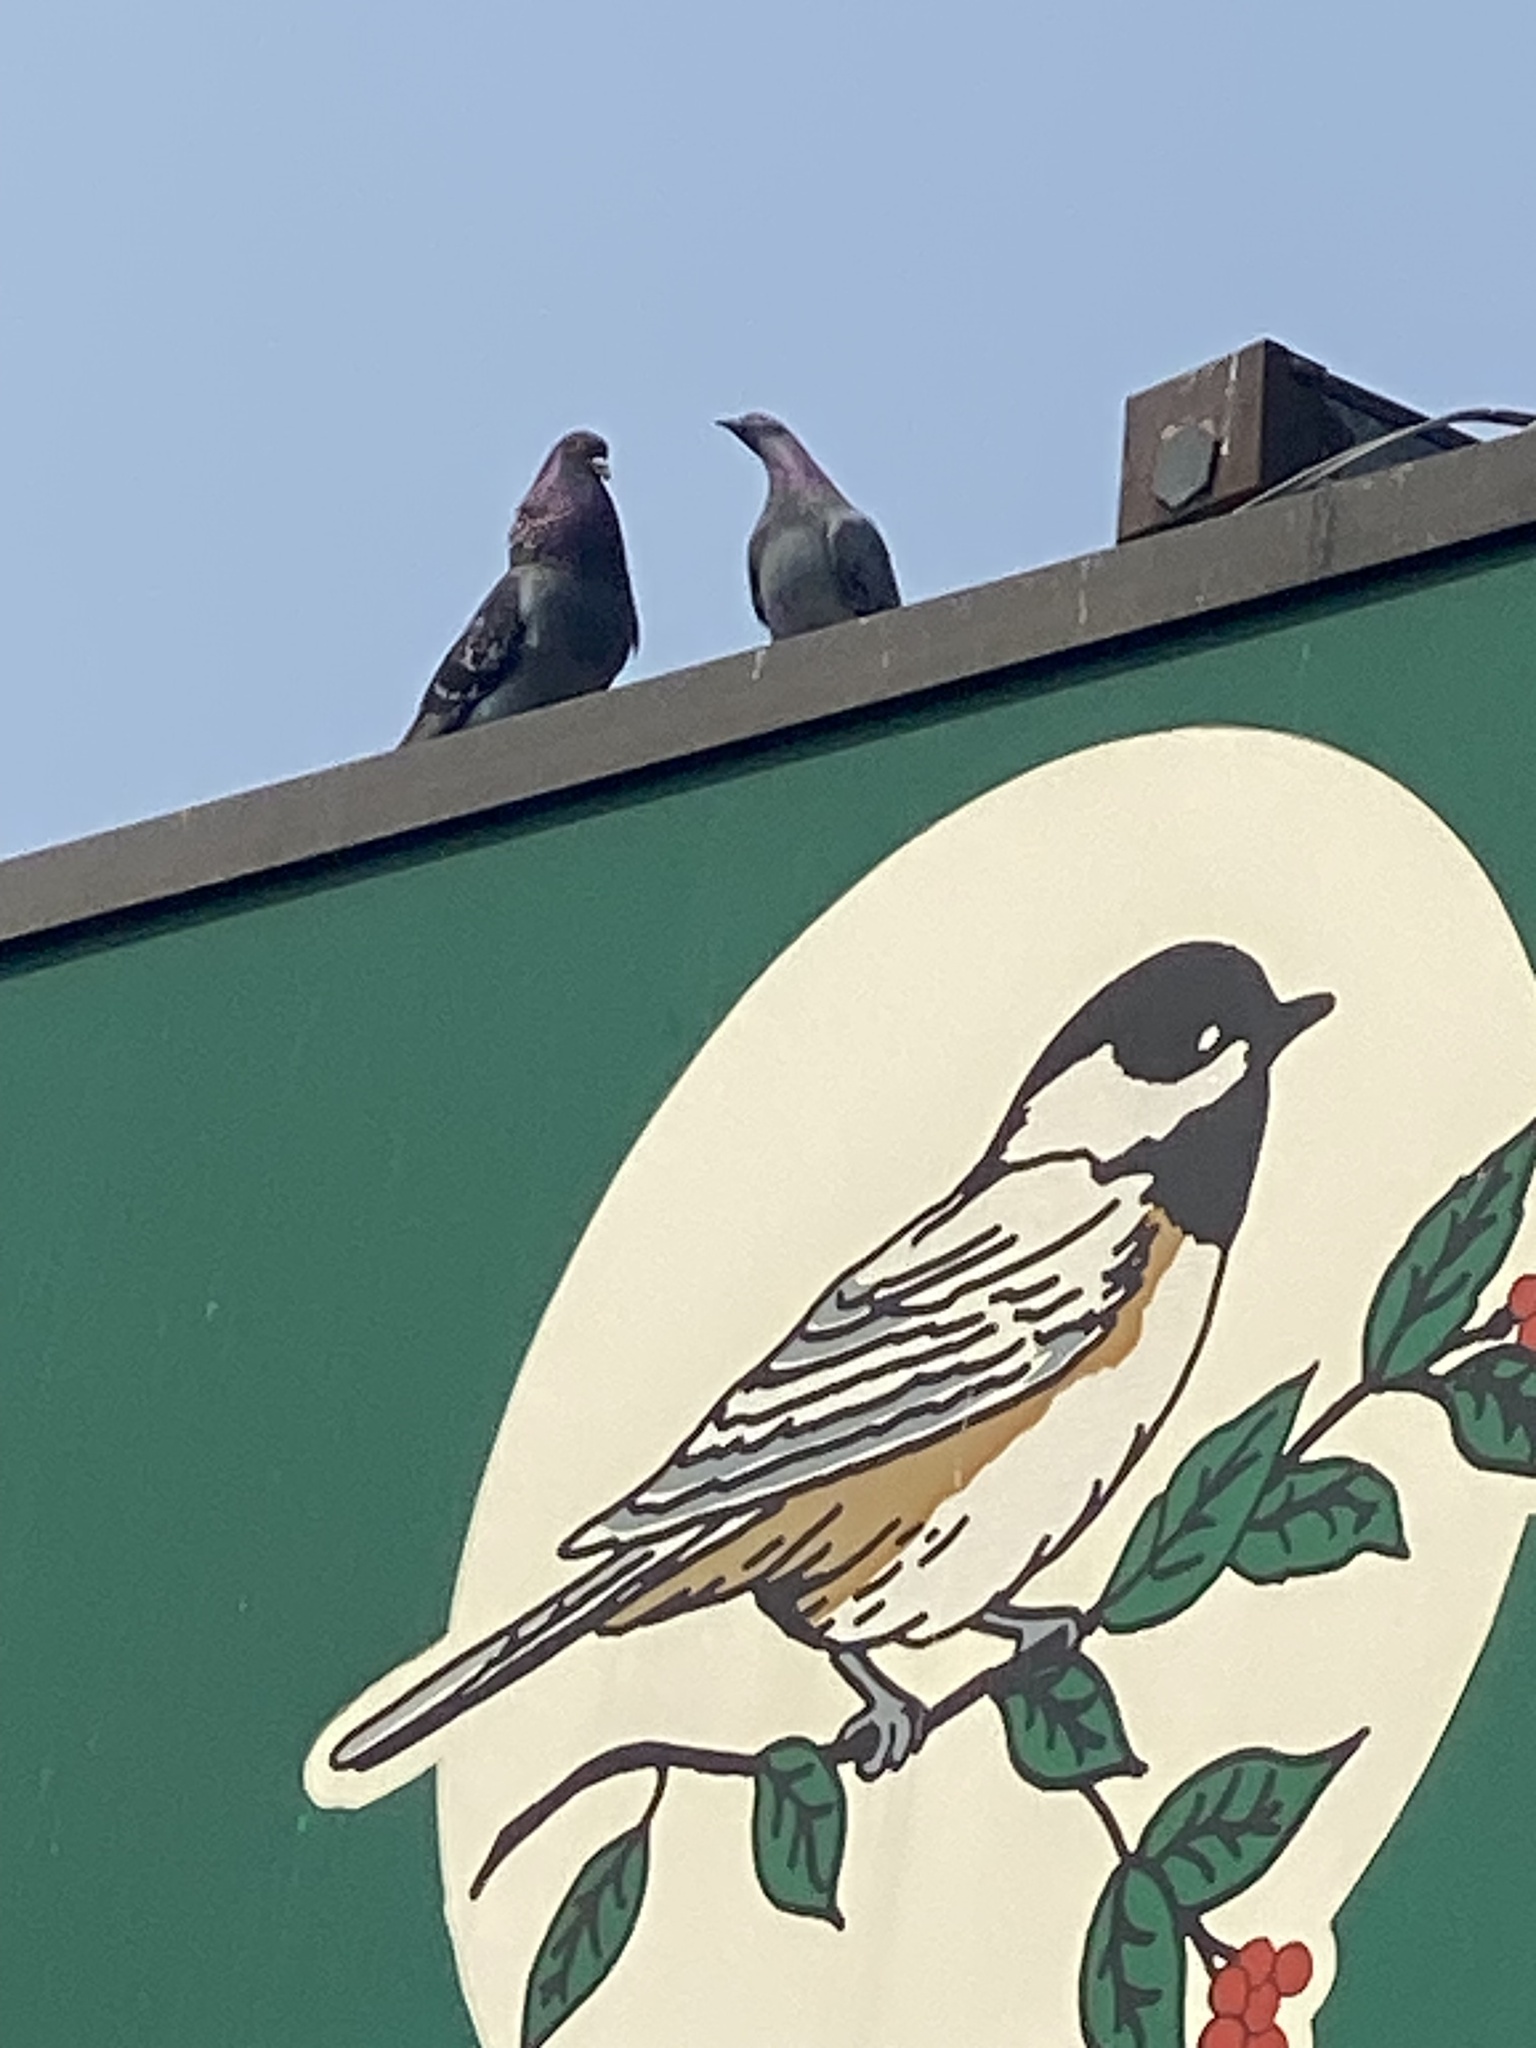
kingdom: Animalia
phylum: Chordata
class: Aves
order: Columbiformes
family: Columbidae
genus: Columba
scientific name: Columba livia
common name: Rock pigeon
